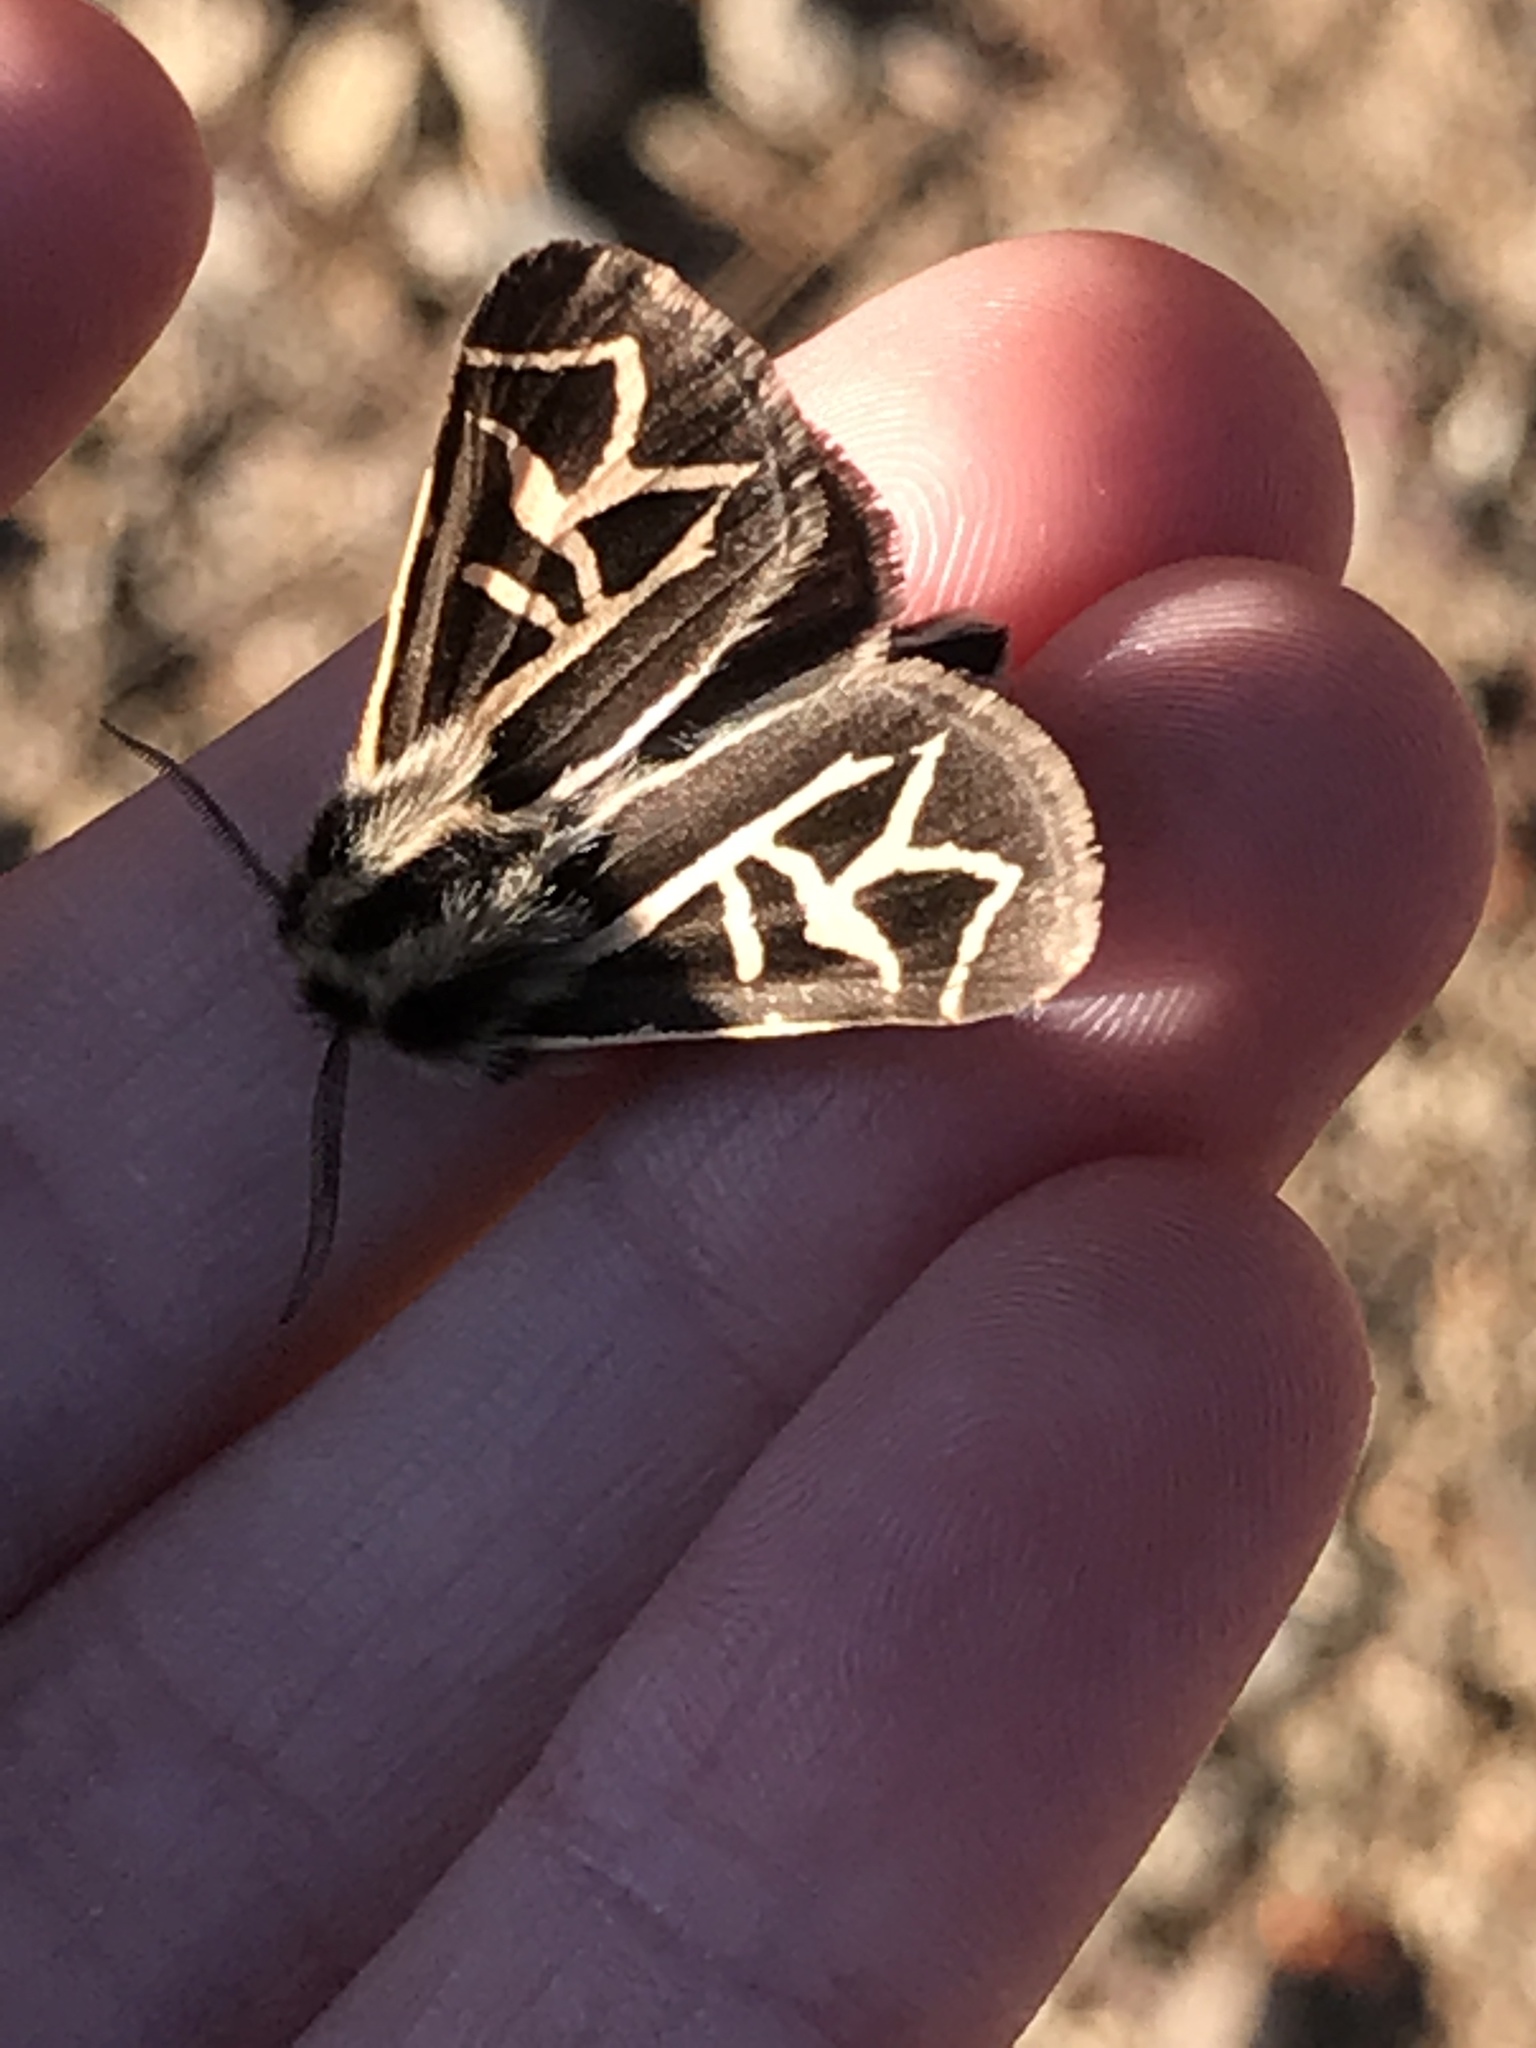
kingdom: Animalia
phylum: Arthropoda
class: Insecta
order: Lepidoptera
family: Erebidae
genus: Apantesis
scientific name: Apantesis
